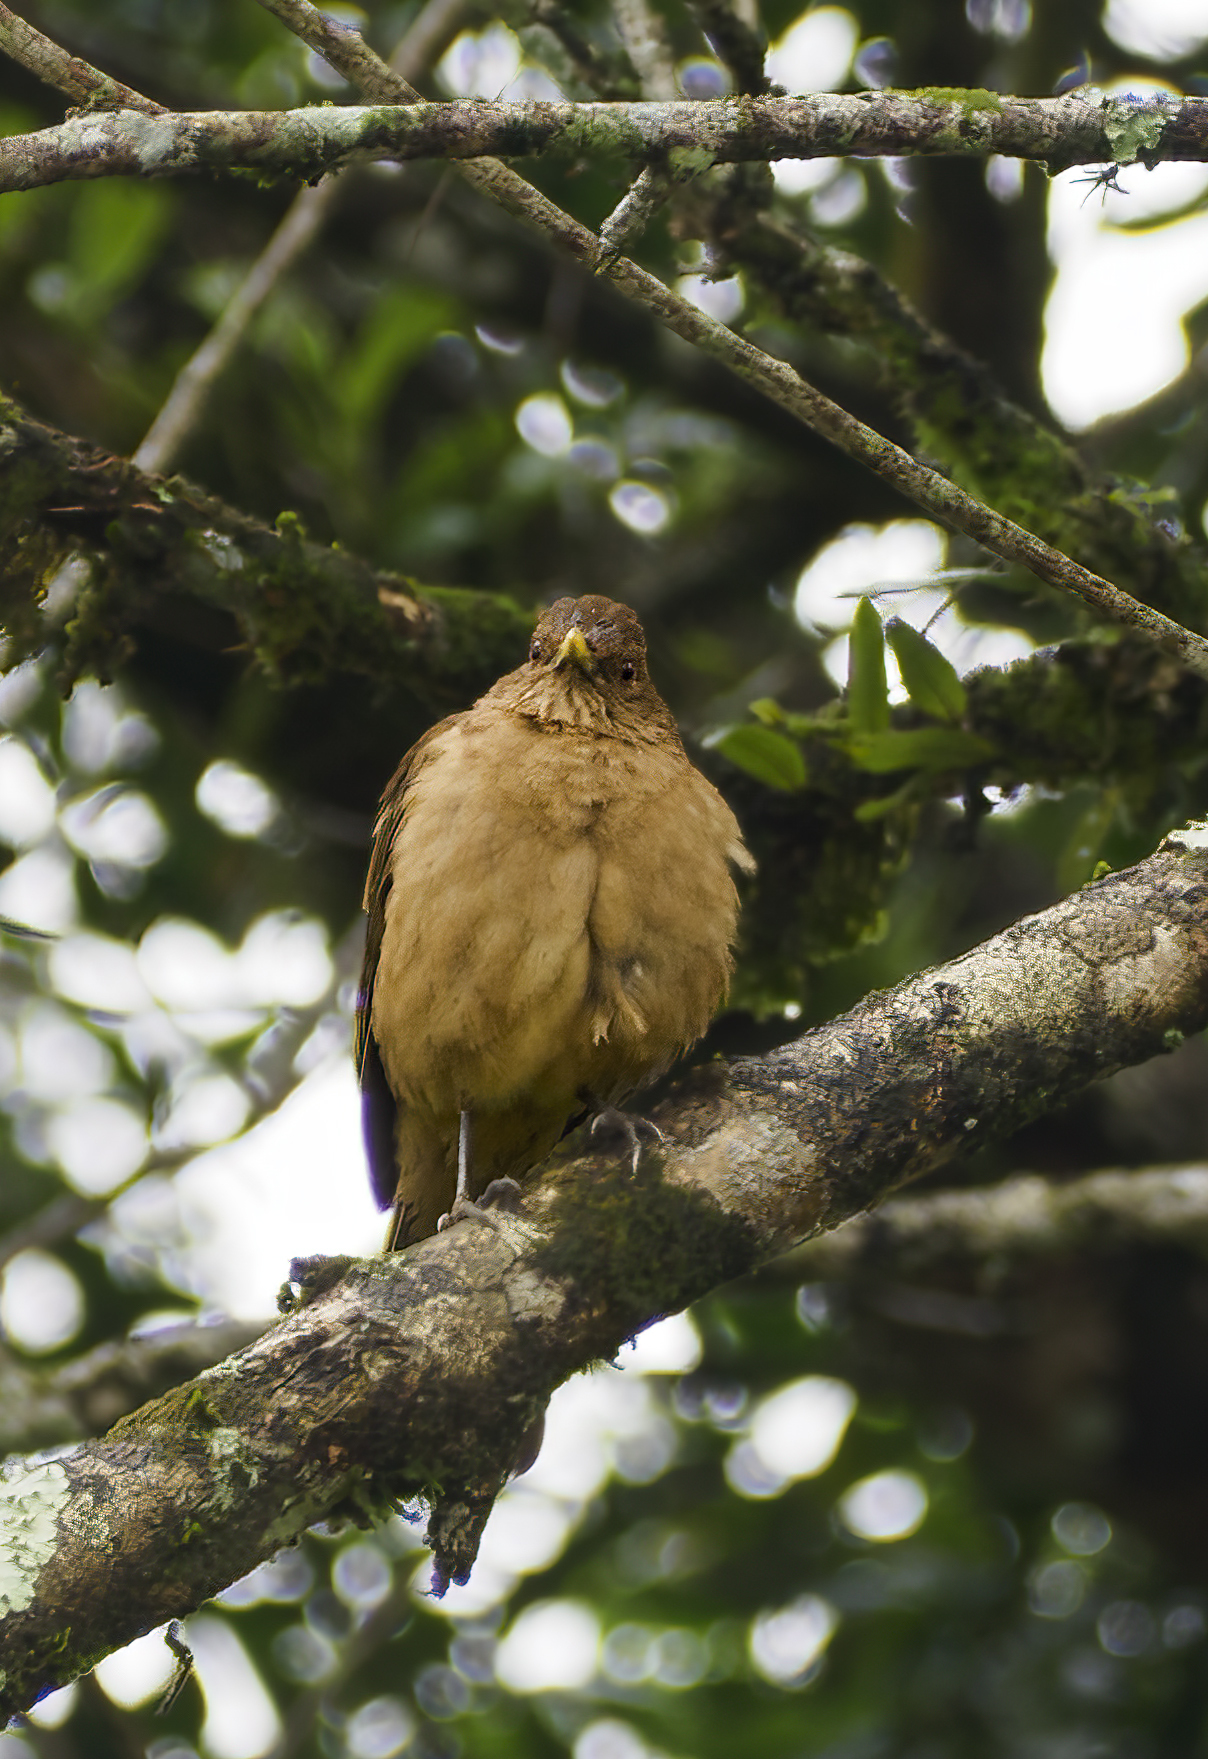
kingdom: Animalia
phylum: Chordata
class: Aves
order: Passeriformes
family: Turdidae
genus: Turdus
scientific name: Turdus grayi
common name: Clay-colored thrush
